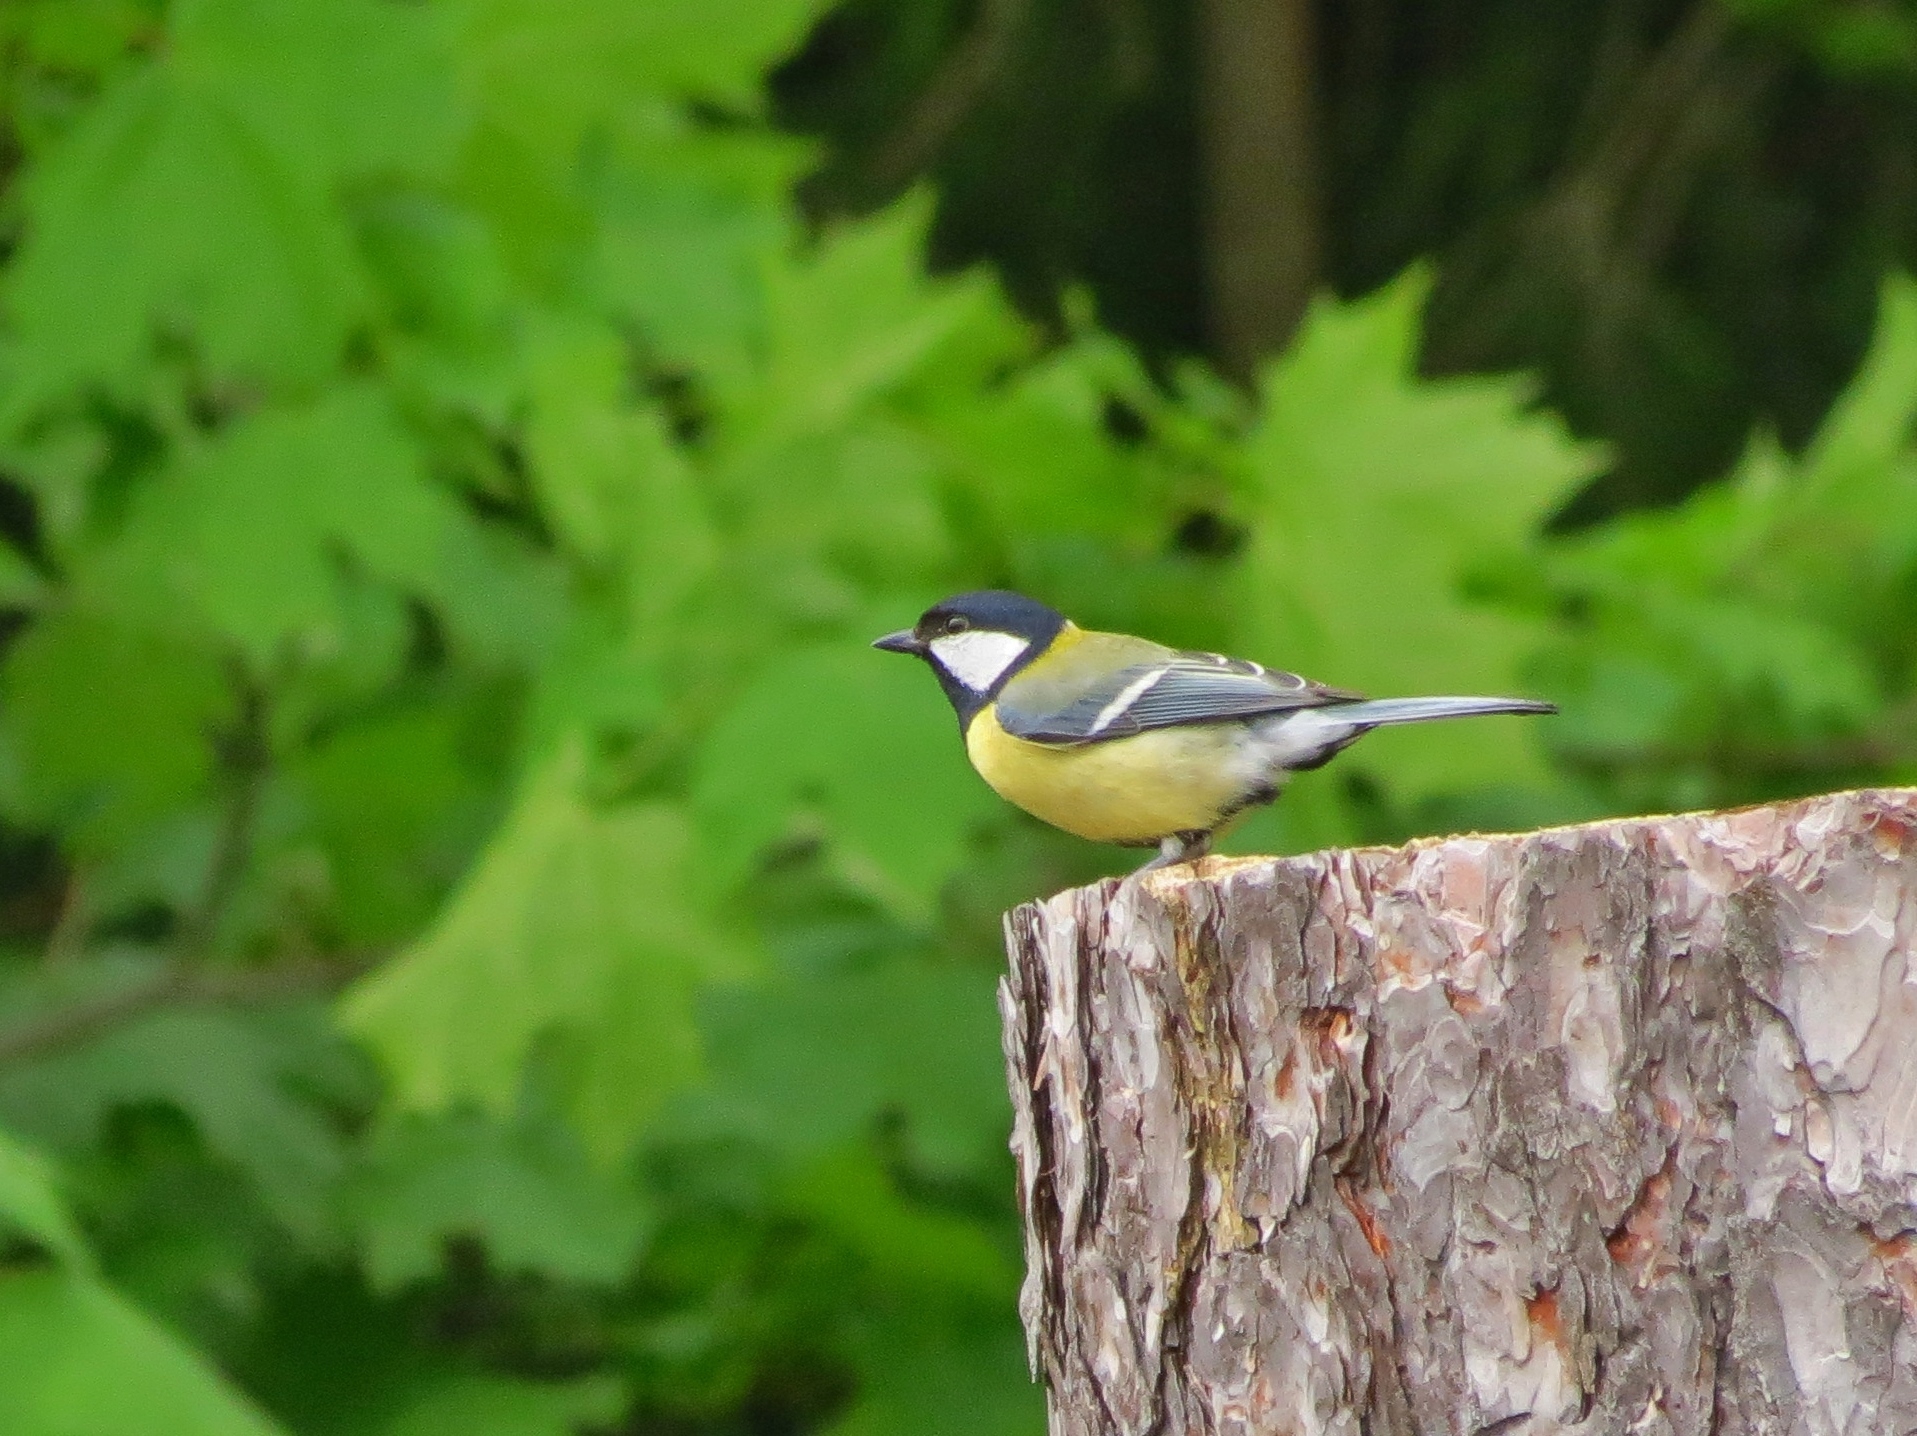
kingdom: Animalia
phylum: Chordata
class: Aves
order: Passeriformes
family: Paridae
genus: Parus
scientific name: Parus major
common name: Great tit
